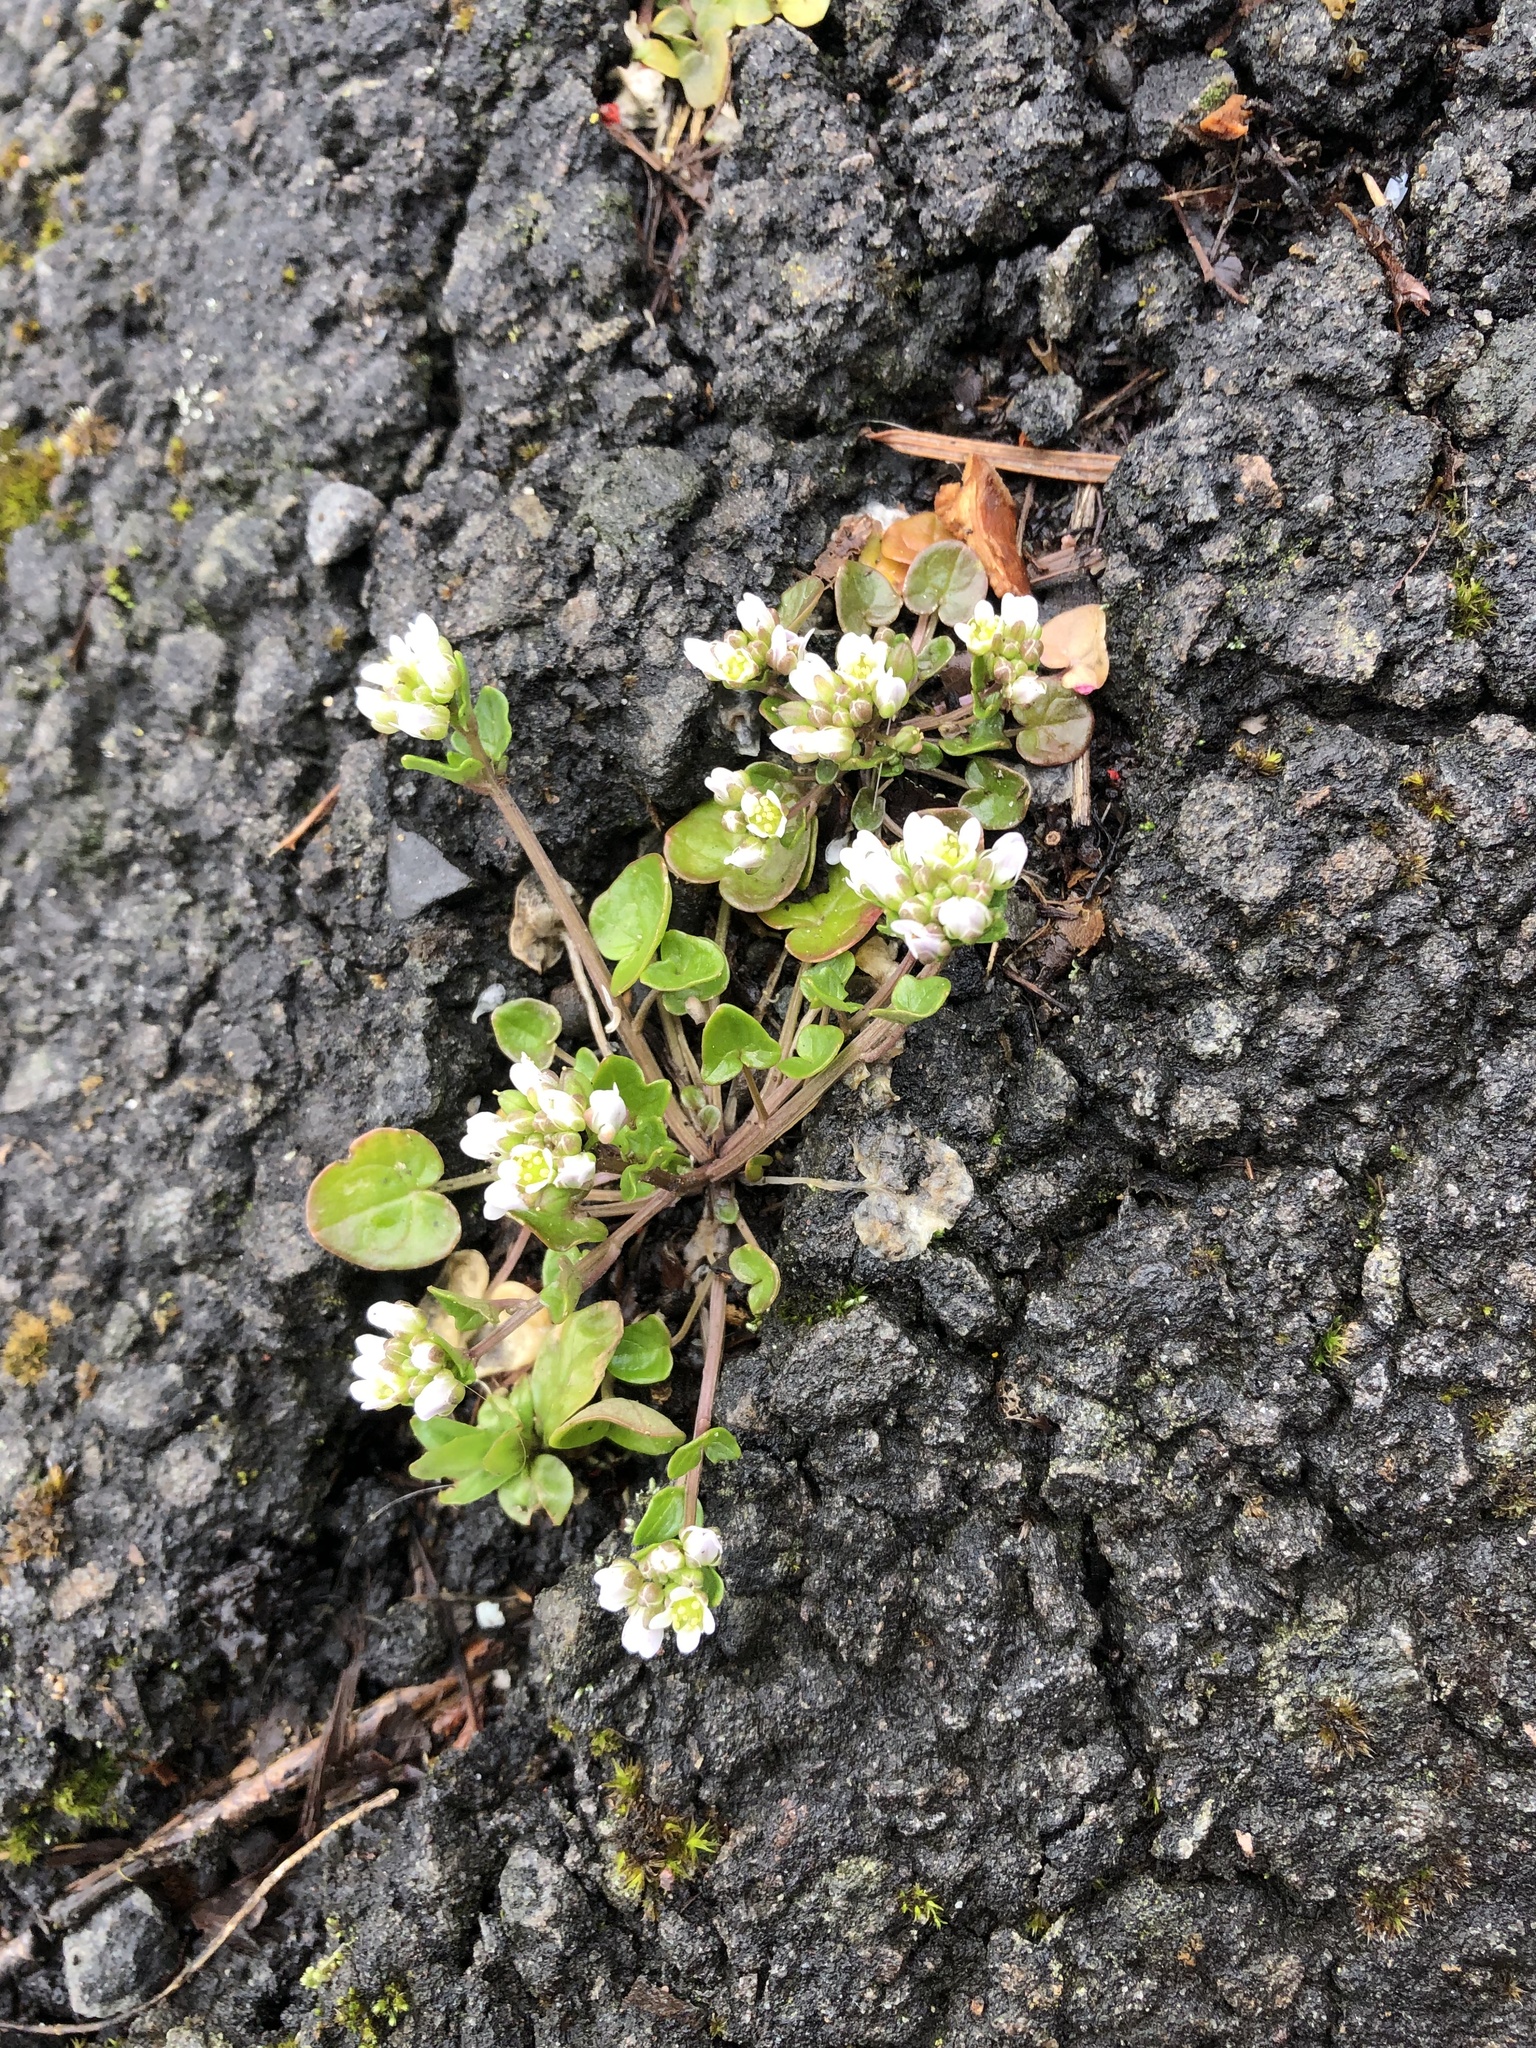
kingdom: Plantae
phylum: Tracheophyta
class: Magnoliopsida
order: Brassicales
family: Brassicaceae
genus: Cochlearia
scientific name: Cochlearia danica
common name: Early scurvygrass
